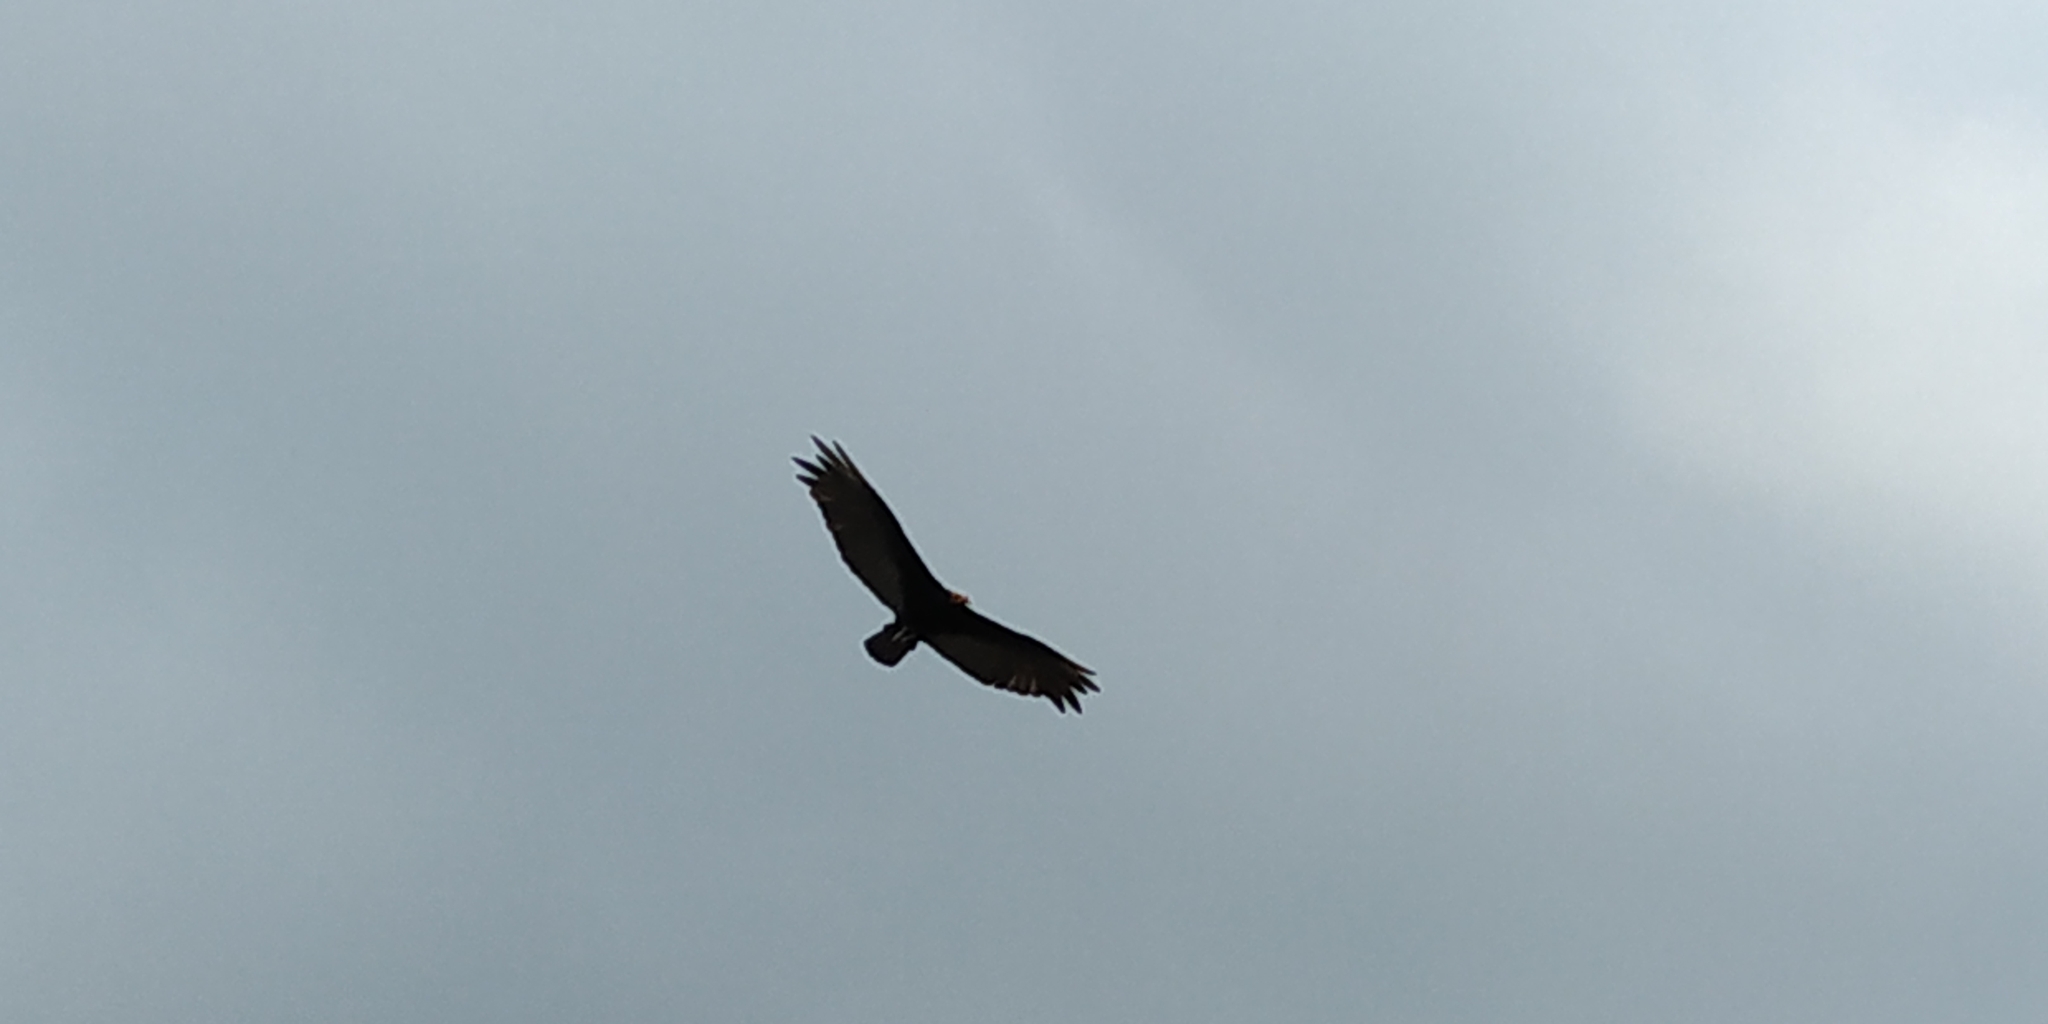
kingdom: Animalia
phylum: Chordata
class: Aves
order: Accipitriformes
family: Cathartidae
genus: Cathartes
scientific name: Cathartes burrovianus
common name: Lesser yellow-headed vulture
